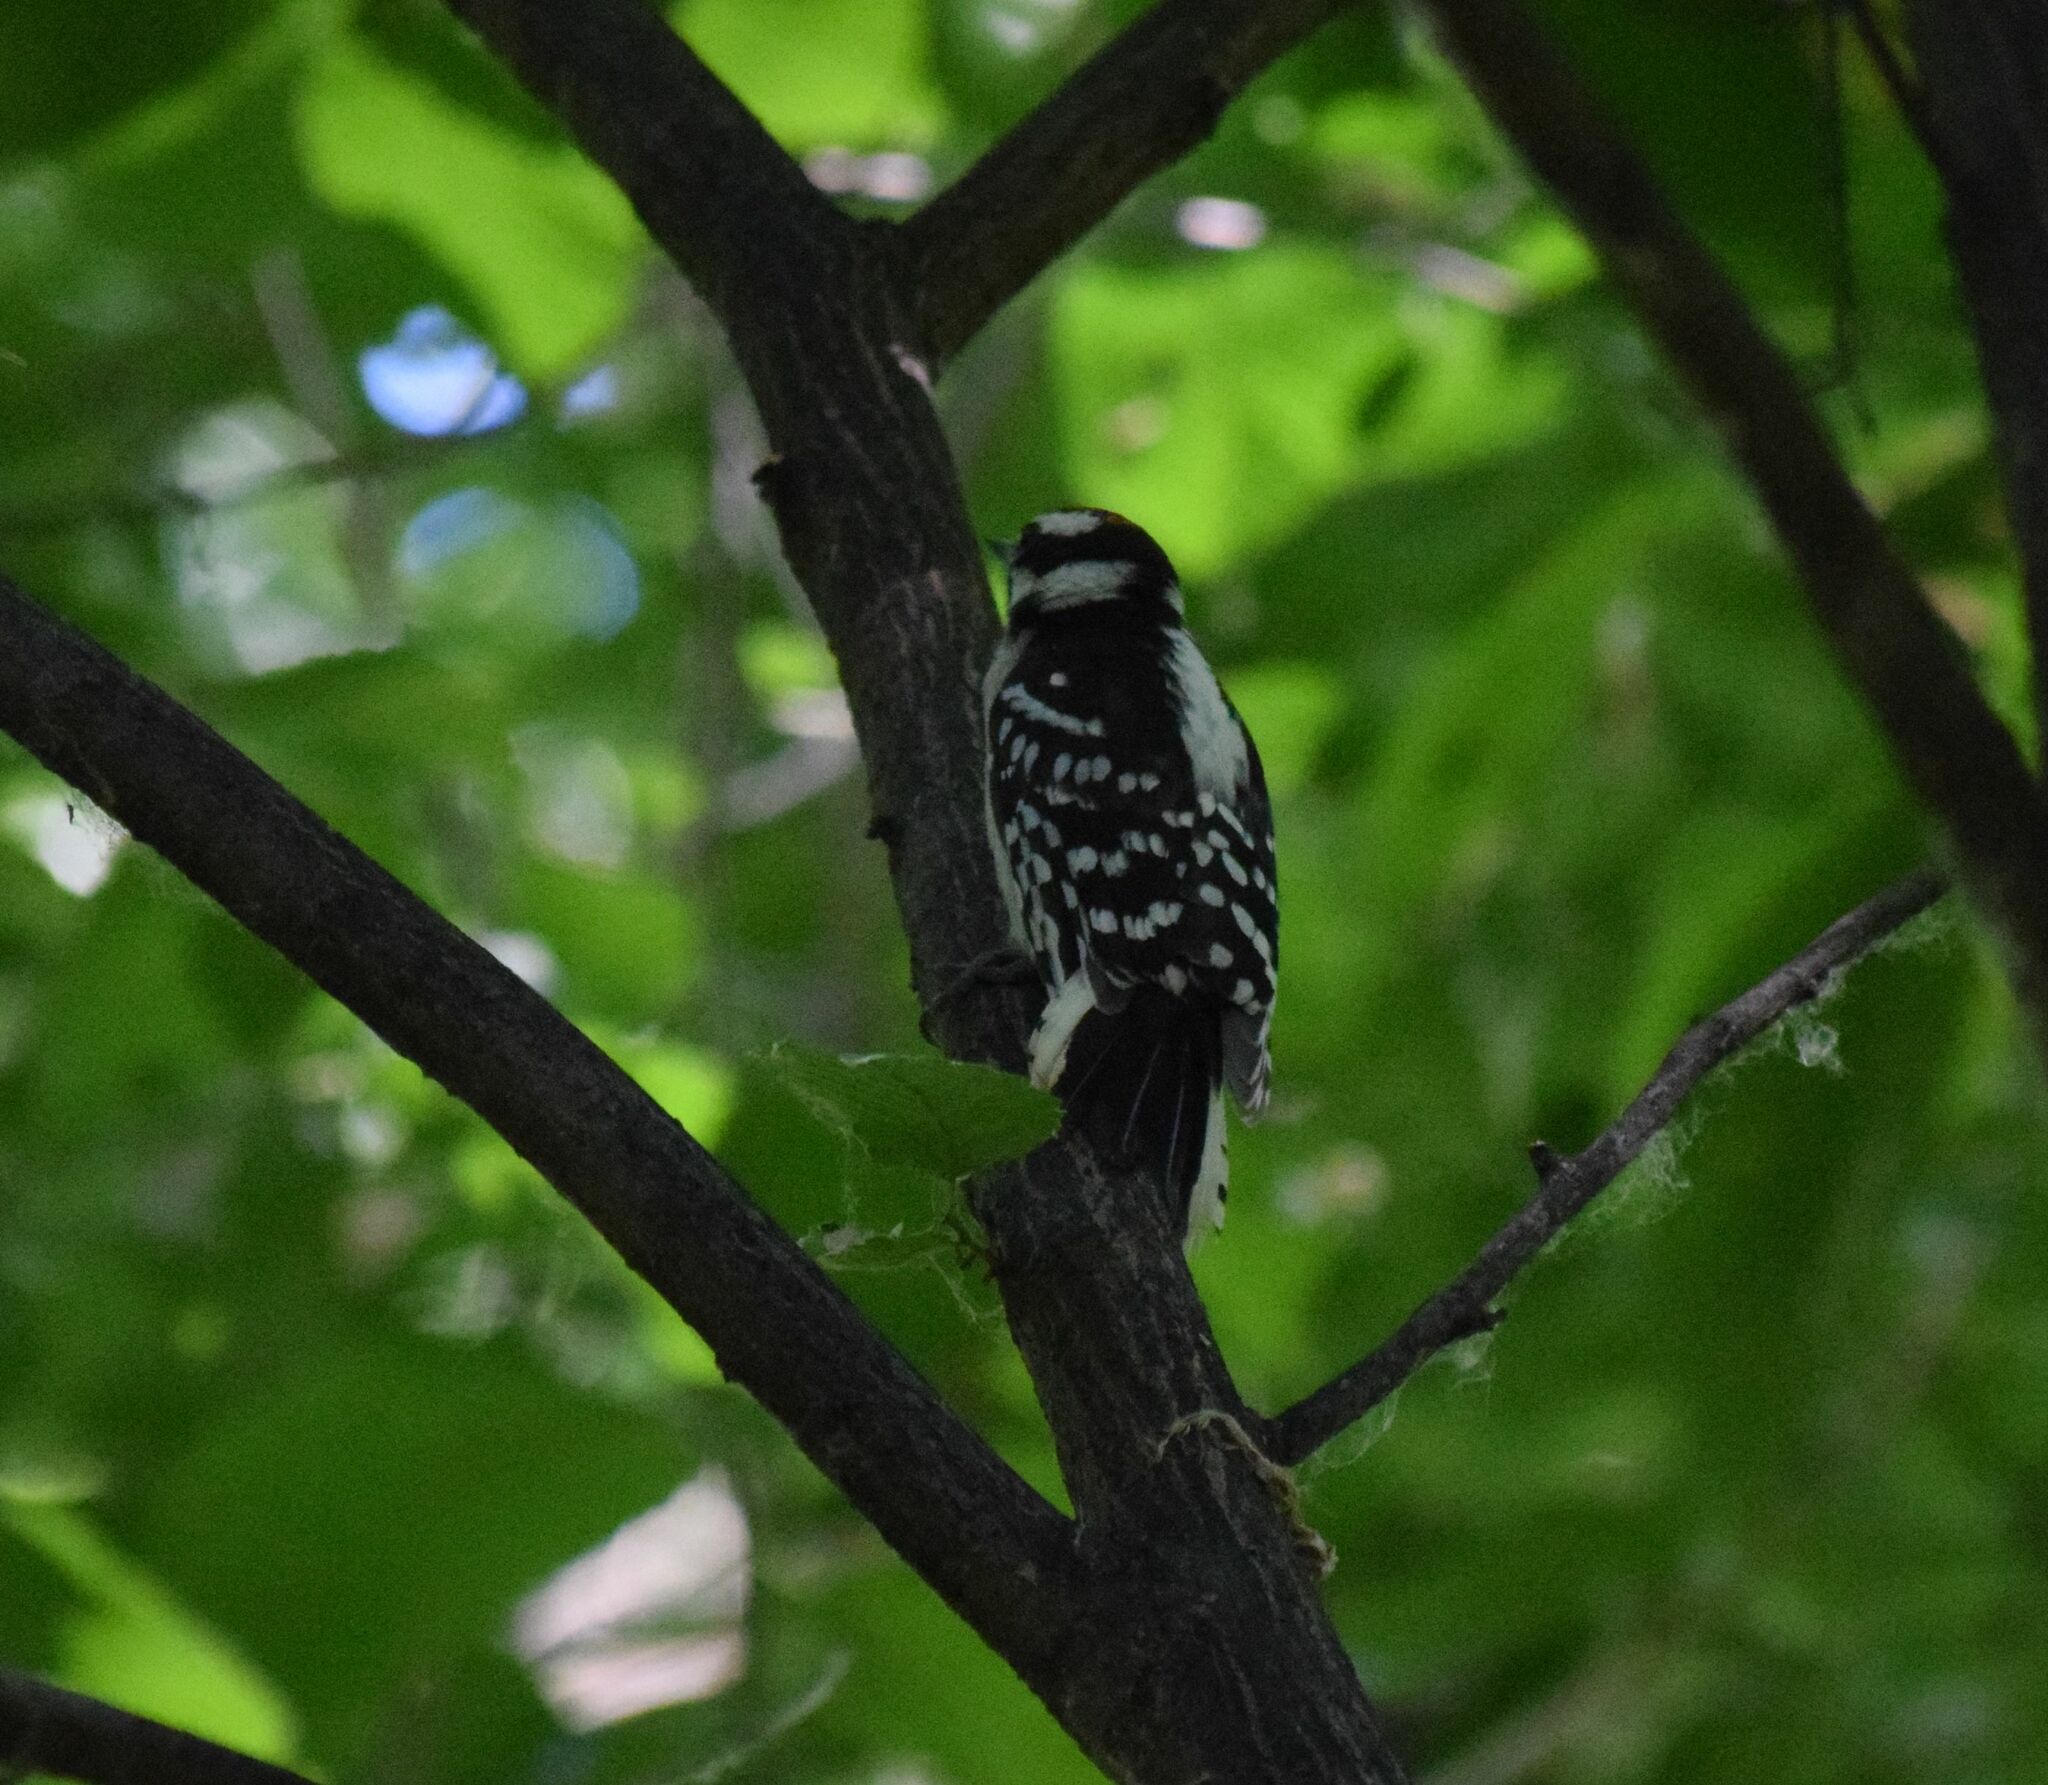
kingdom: Animalia
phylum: Chordata
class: Aves
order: Piciformes
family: Picidae
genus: Dryobates
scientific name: Dryobates pubescens
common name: Downy woodpecker
